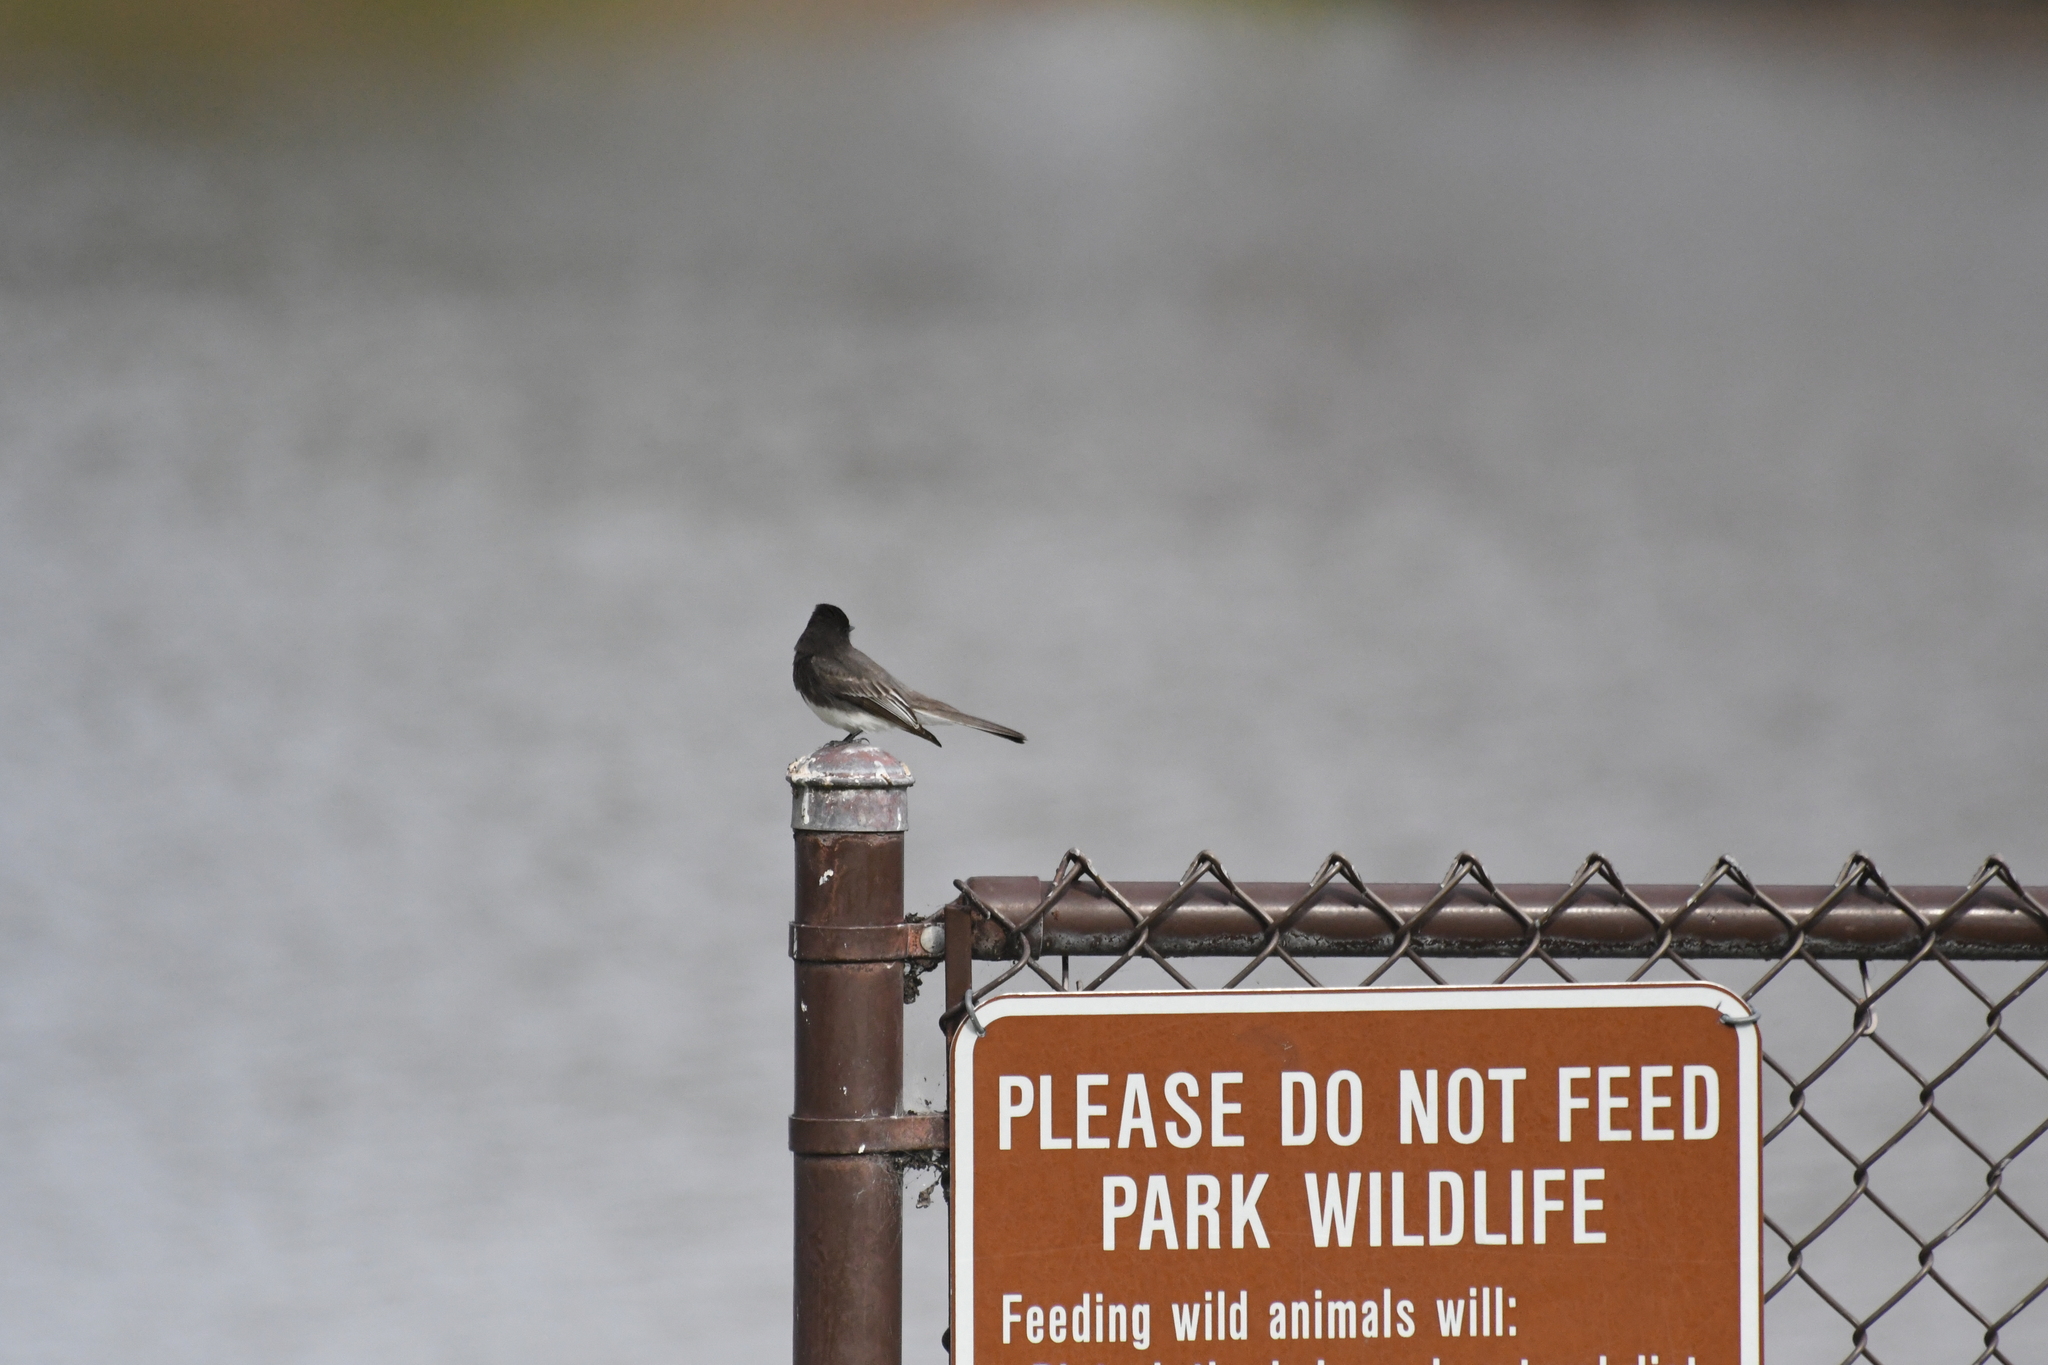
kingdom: Animalia
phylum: Chordata
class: Aves
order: Passeriformes
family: Tyrannidae
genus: Sayornis
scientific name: Sayornis nigricans
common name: Black phoebe
